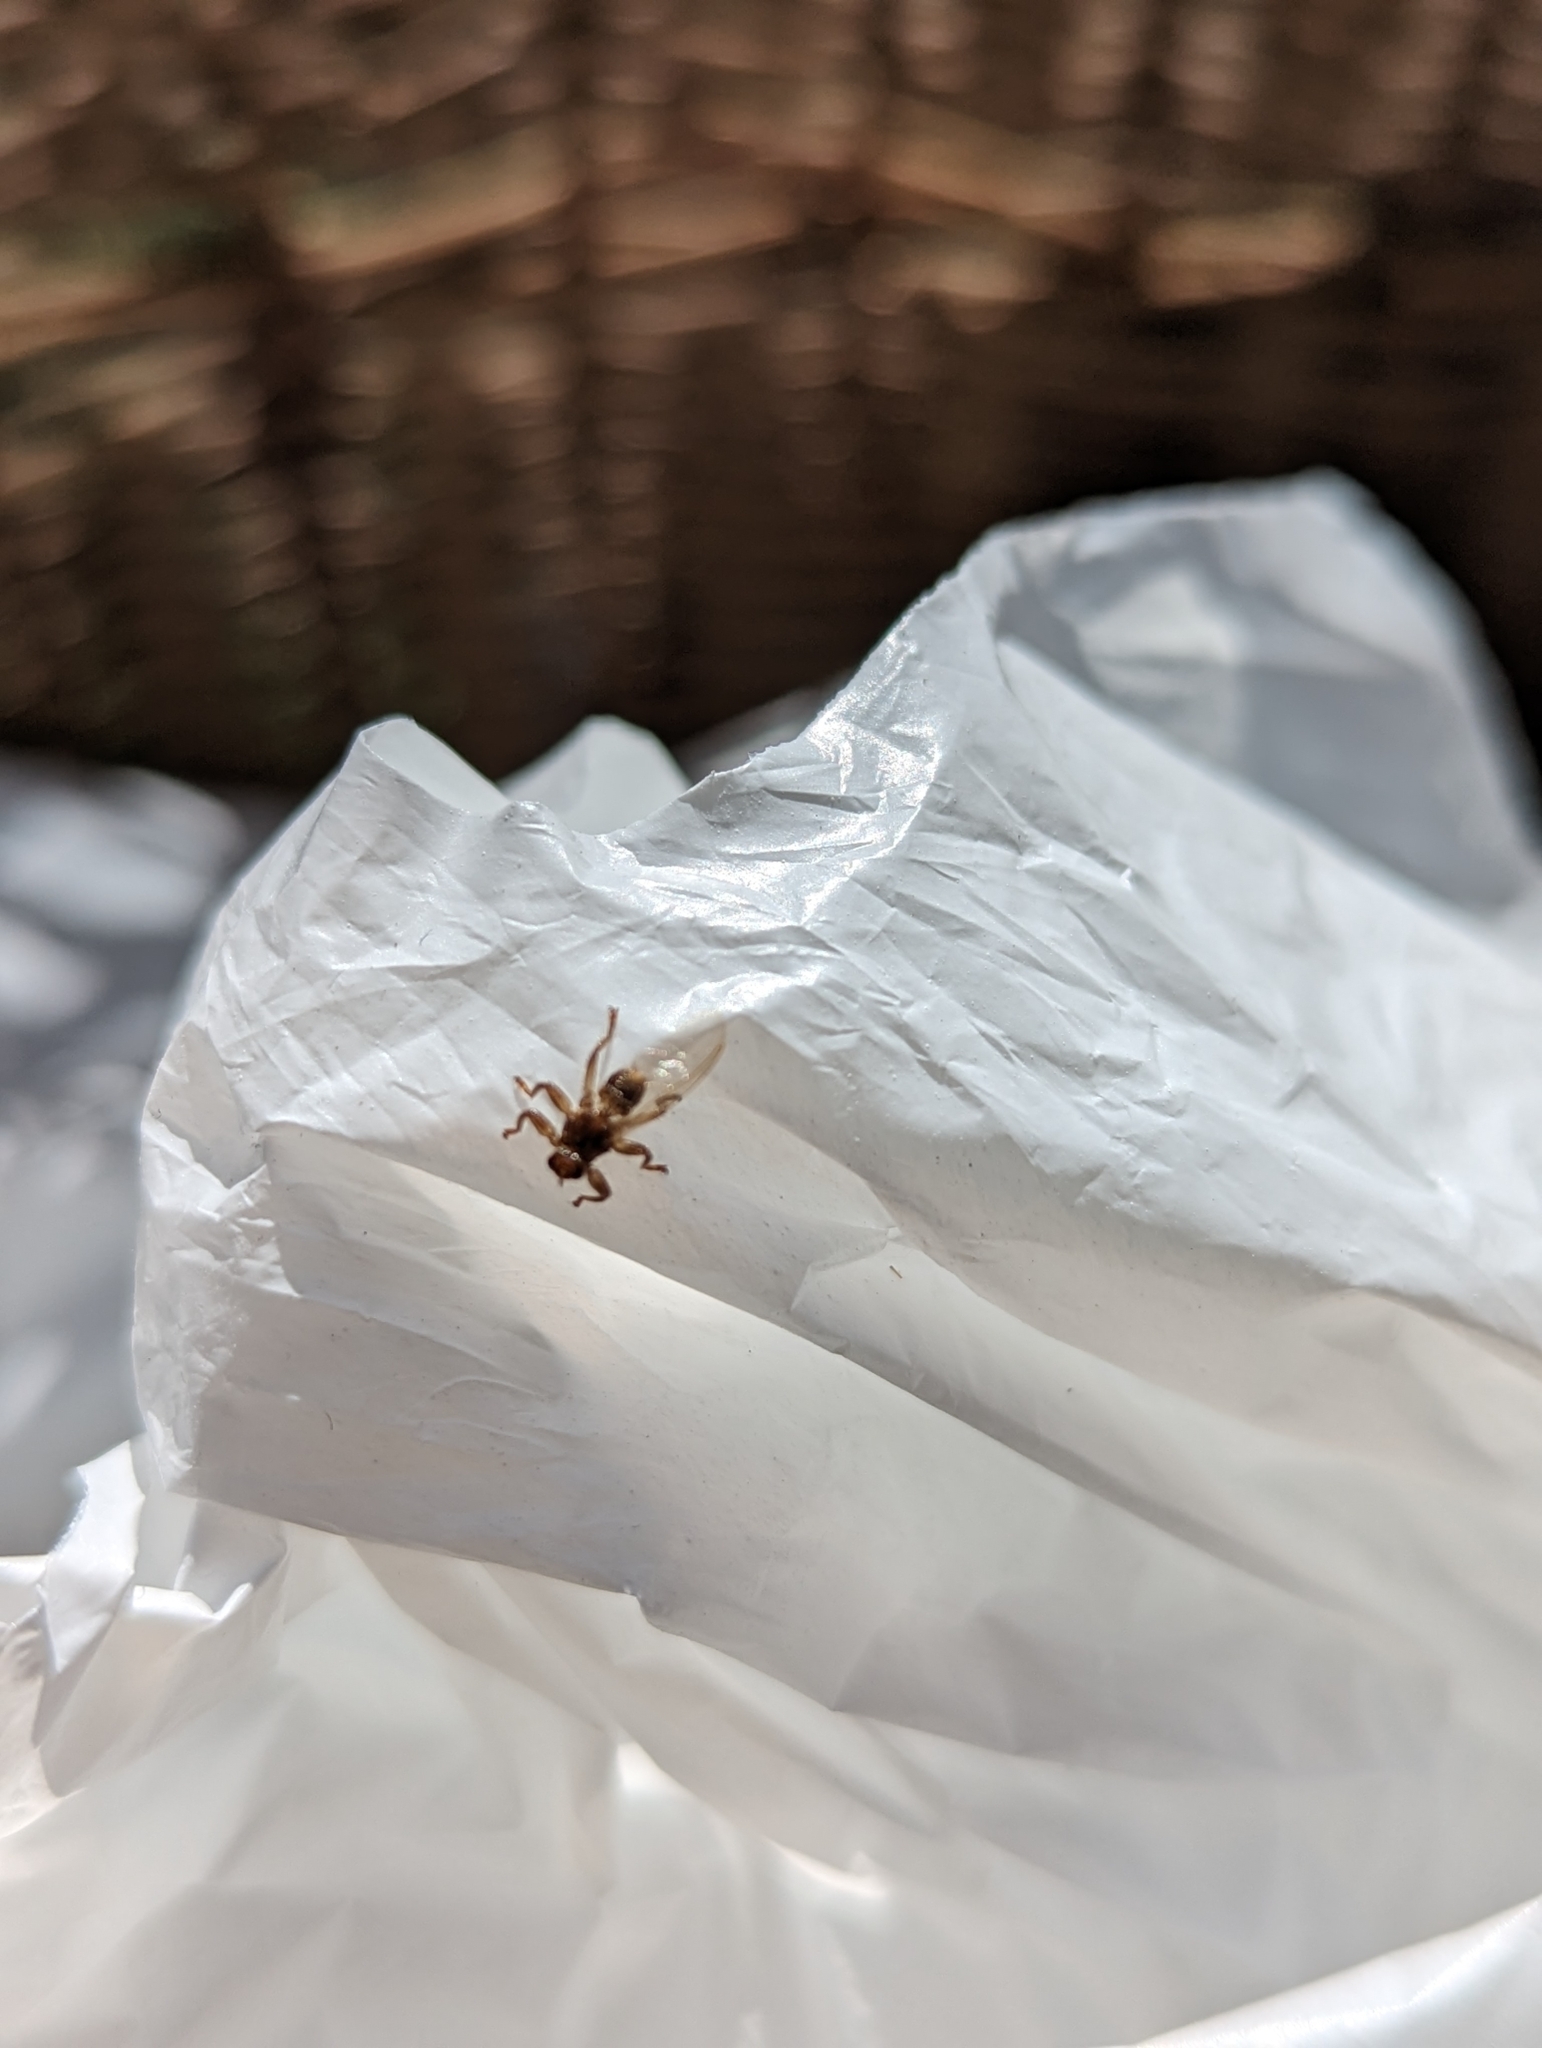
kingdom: Animalia
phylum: Arthropoda
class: Insecta
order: Diptera
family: Hippoboscidae
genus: Lipoptena
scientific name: Lipoptena cervi
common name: Deer ked
